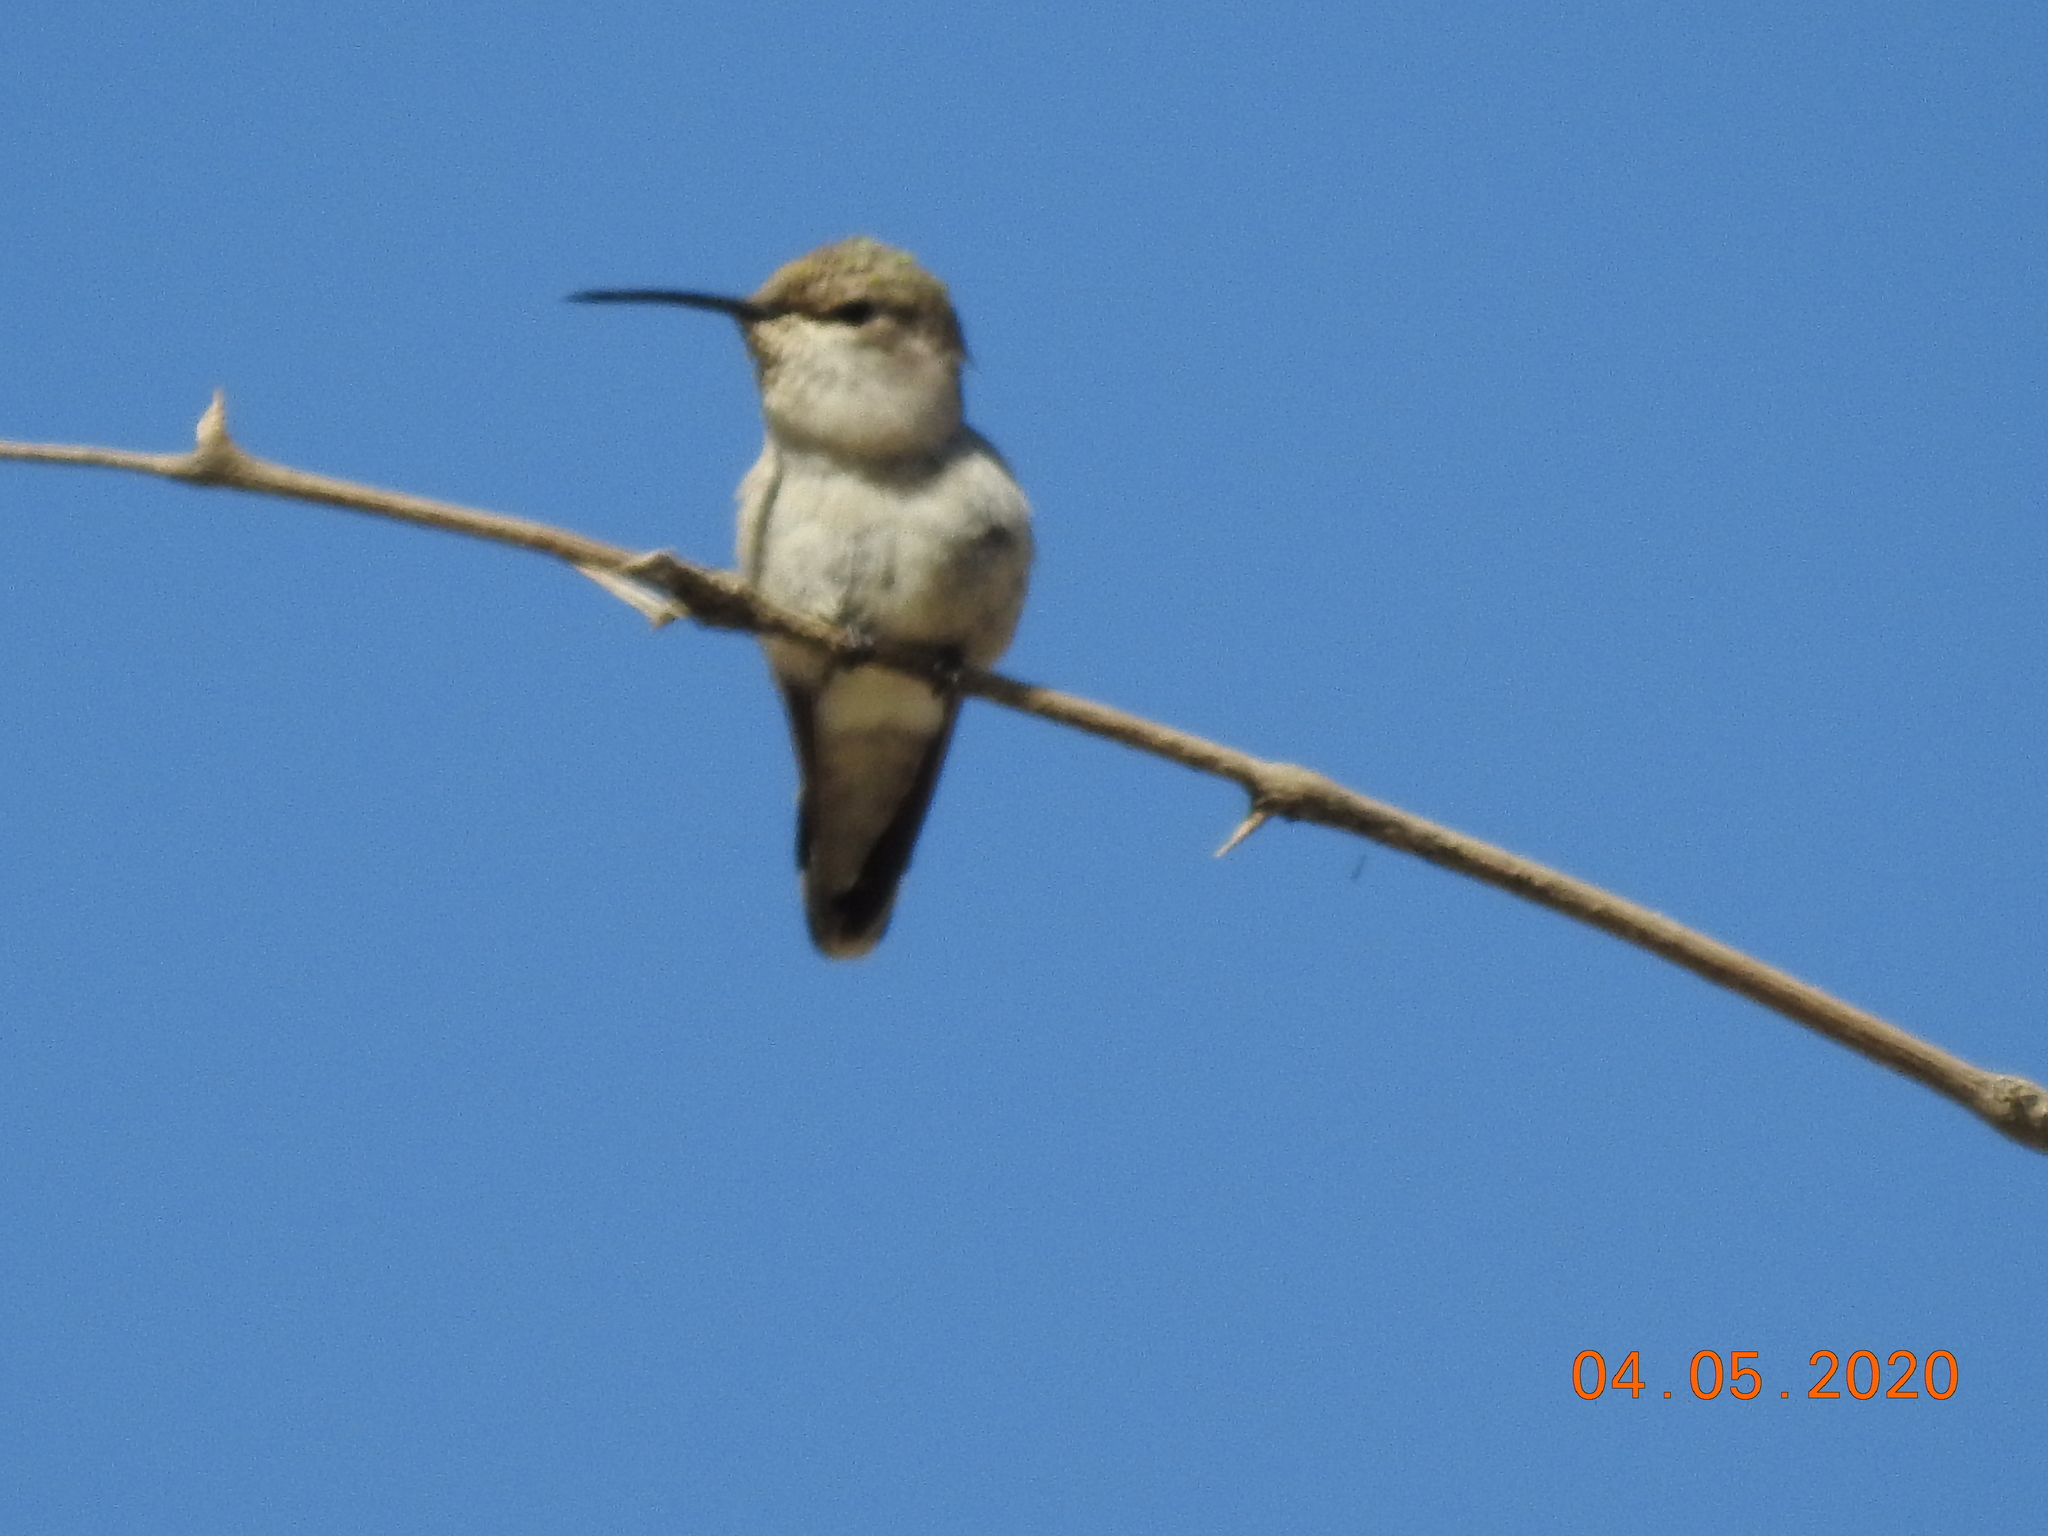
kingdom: Animalia
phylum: Chordata
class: Aves
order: Apodiformes
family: Trochilidae
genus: Calypte
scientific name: Calypte costae
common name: Costa's hummingbird
